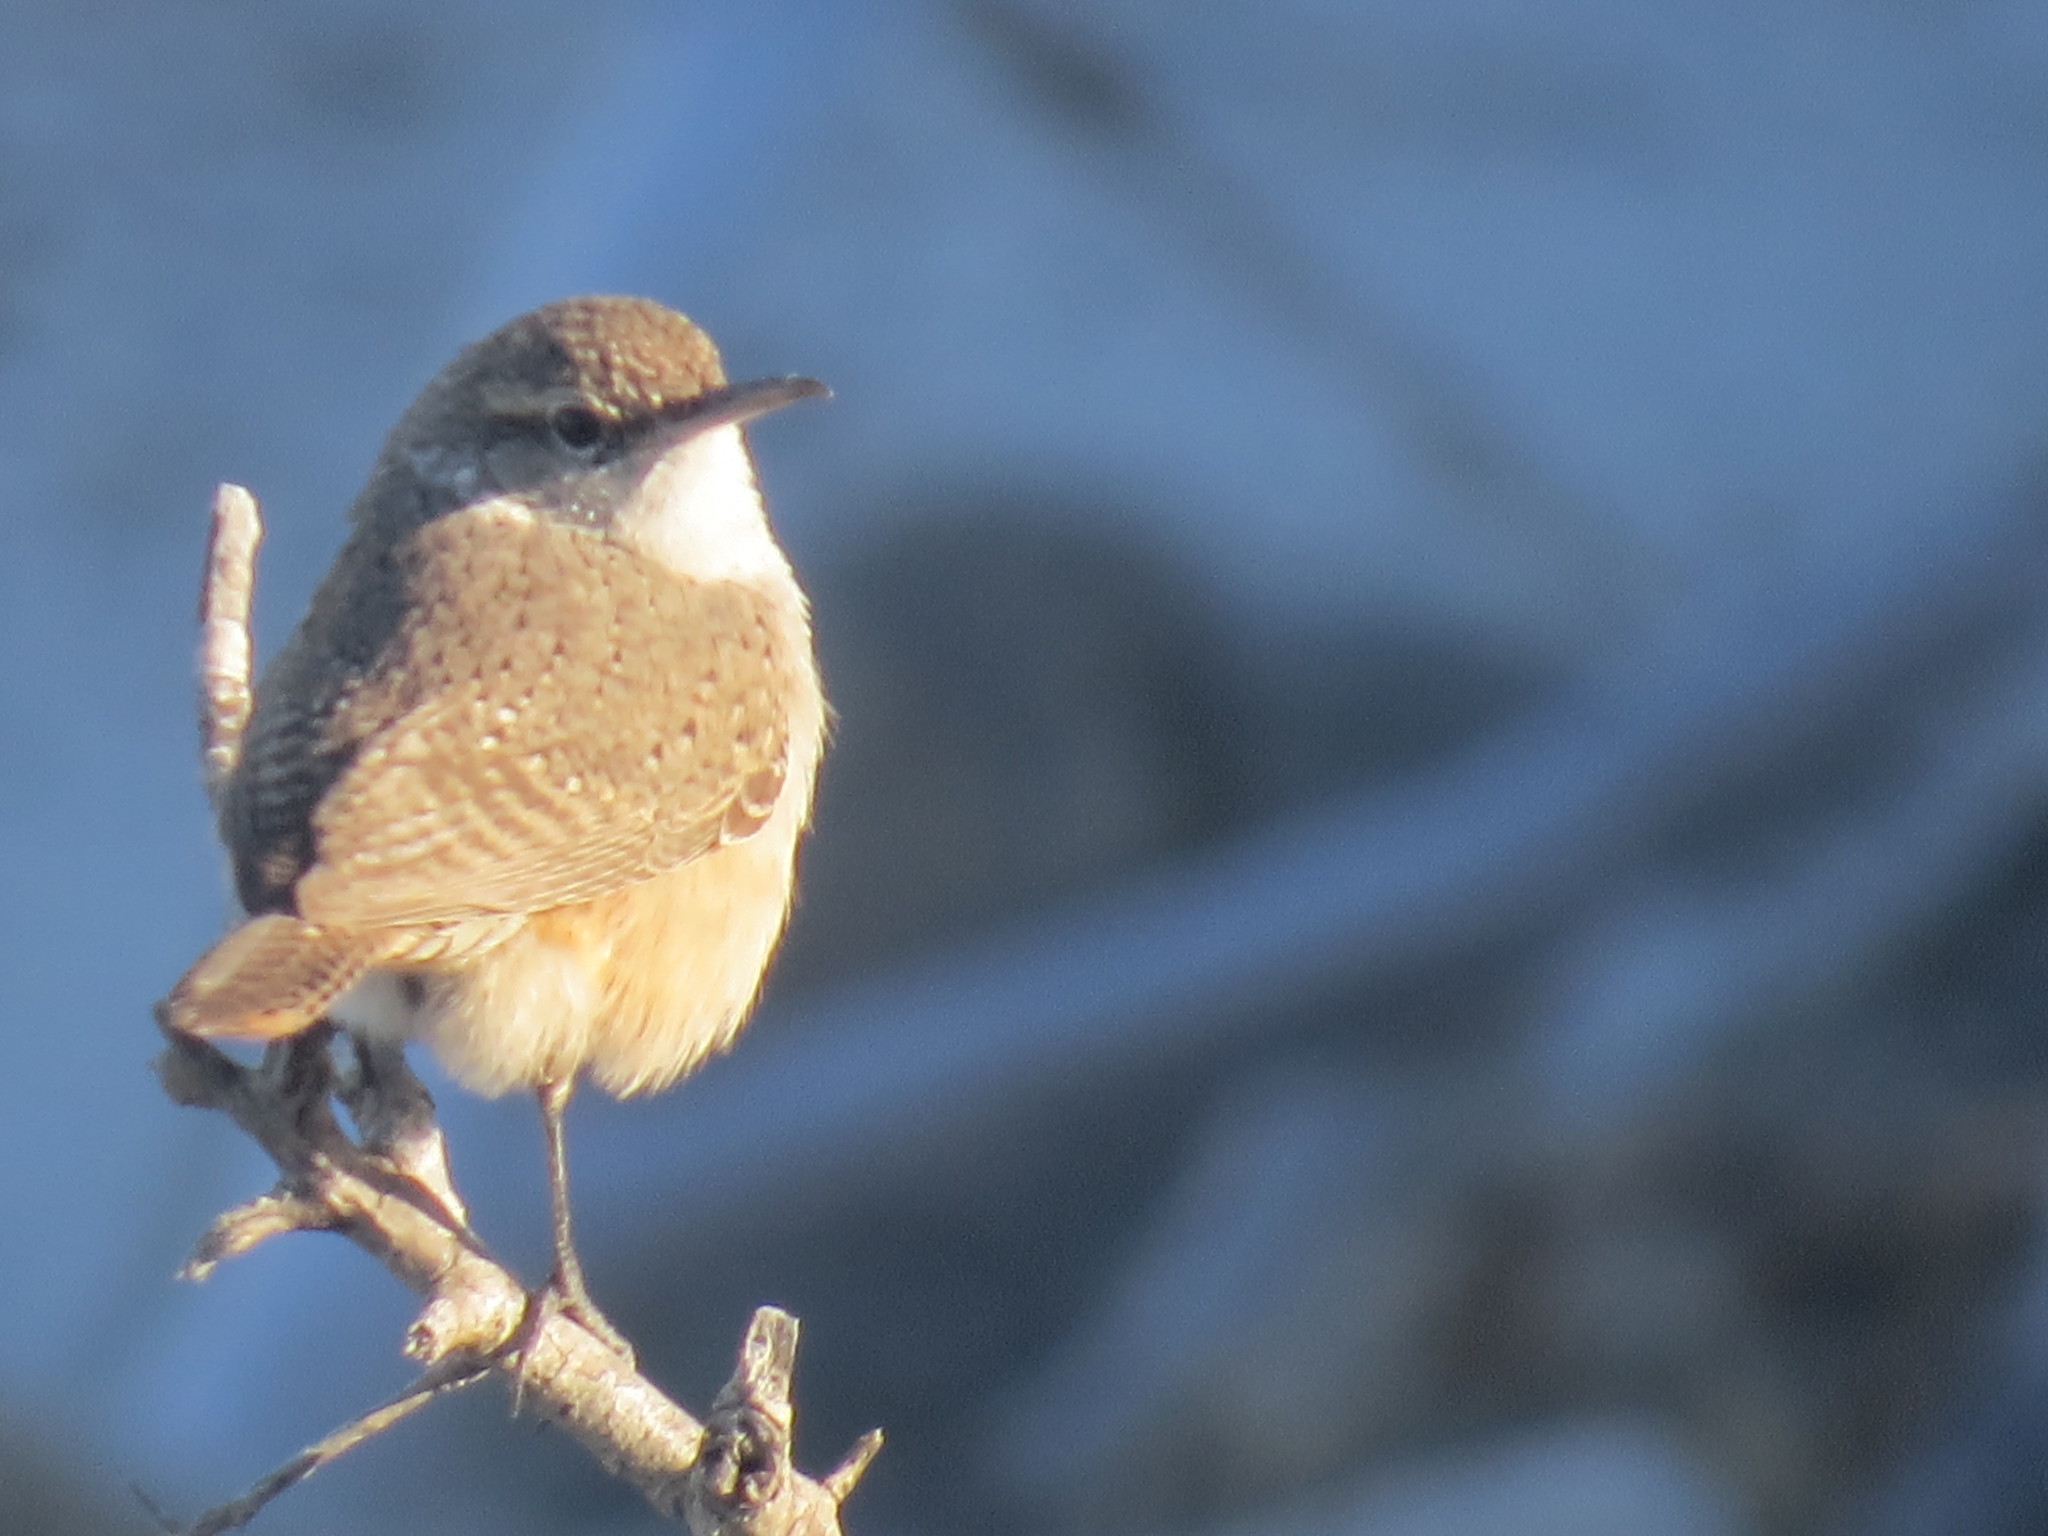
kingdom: Animalia
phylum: Chordata
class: Aves
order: Passeriformes
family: Troglodytidae
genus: Salpinctes
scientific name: Salpinctes obsoletus
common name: Rock wren
